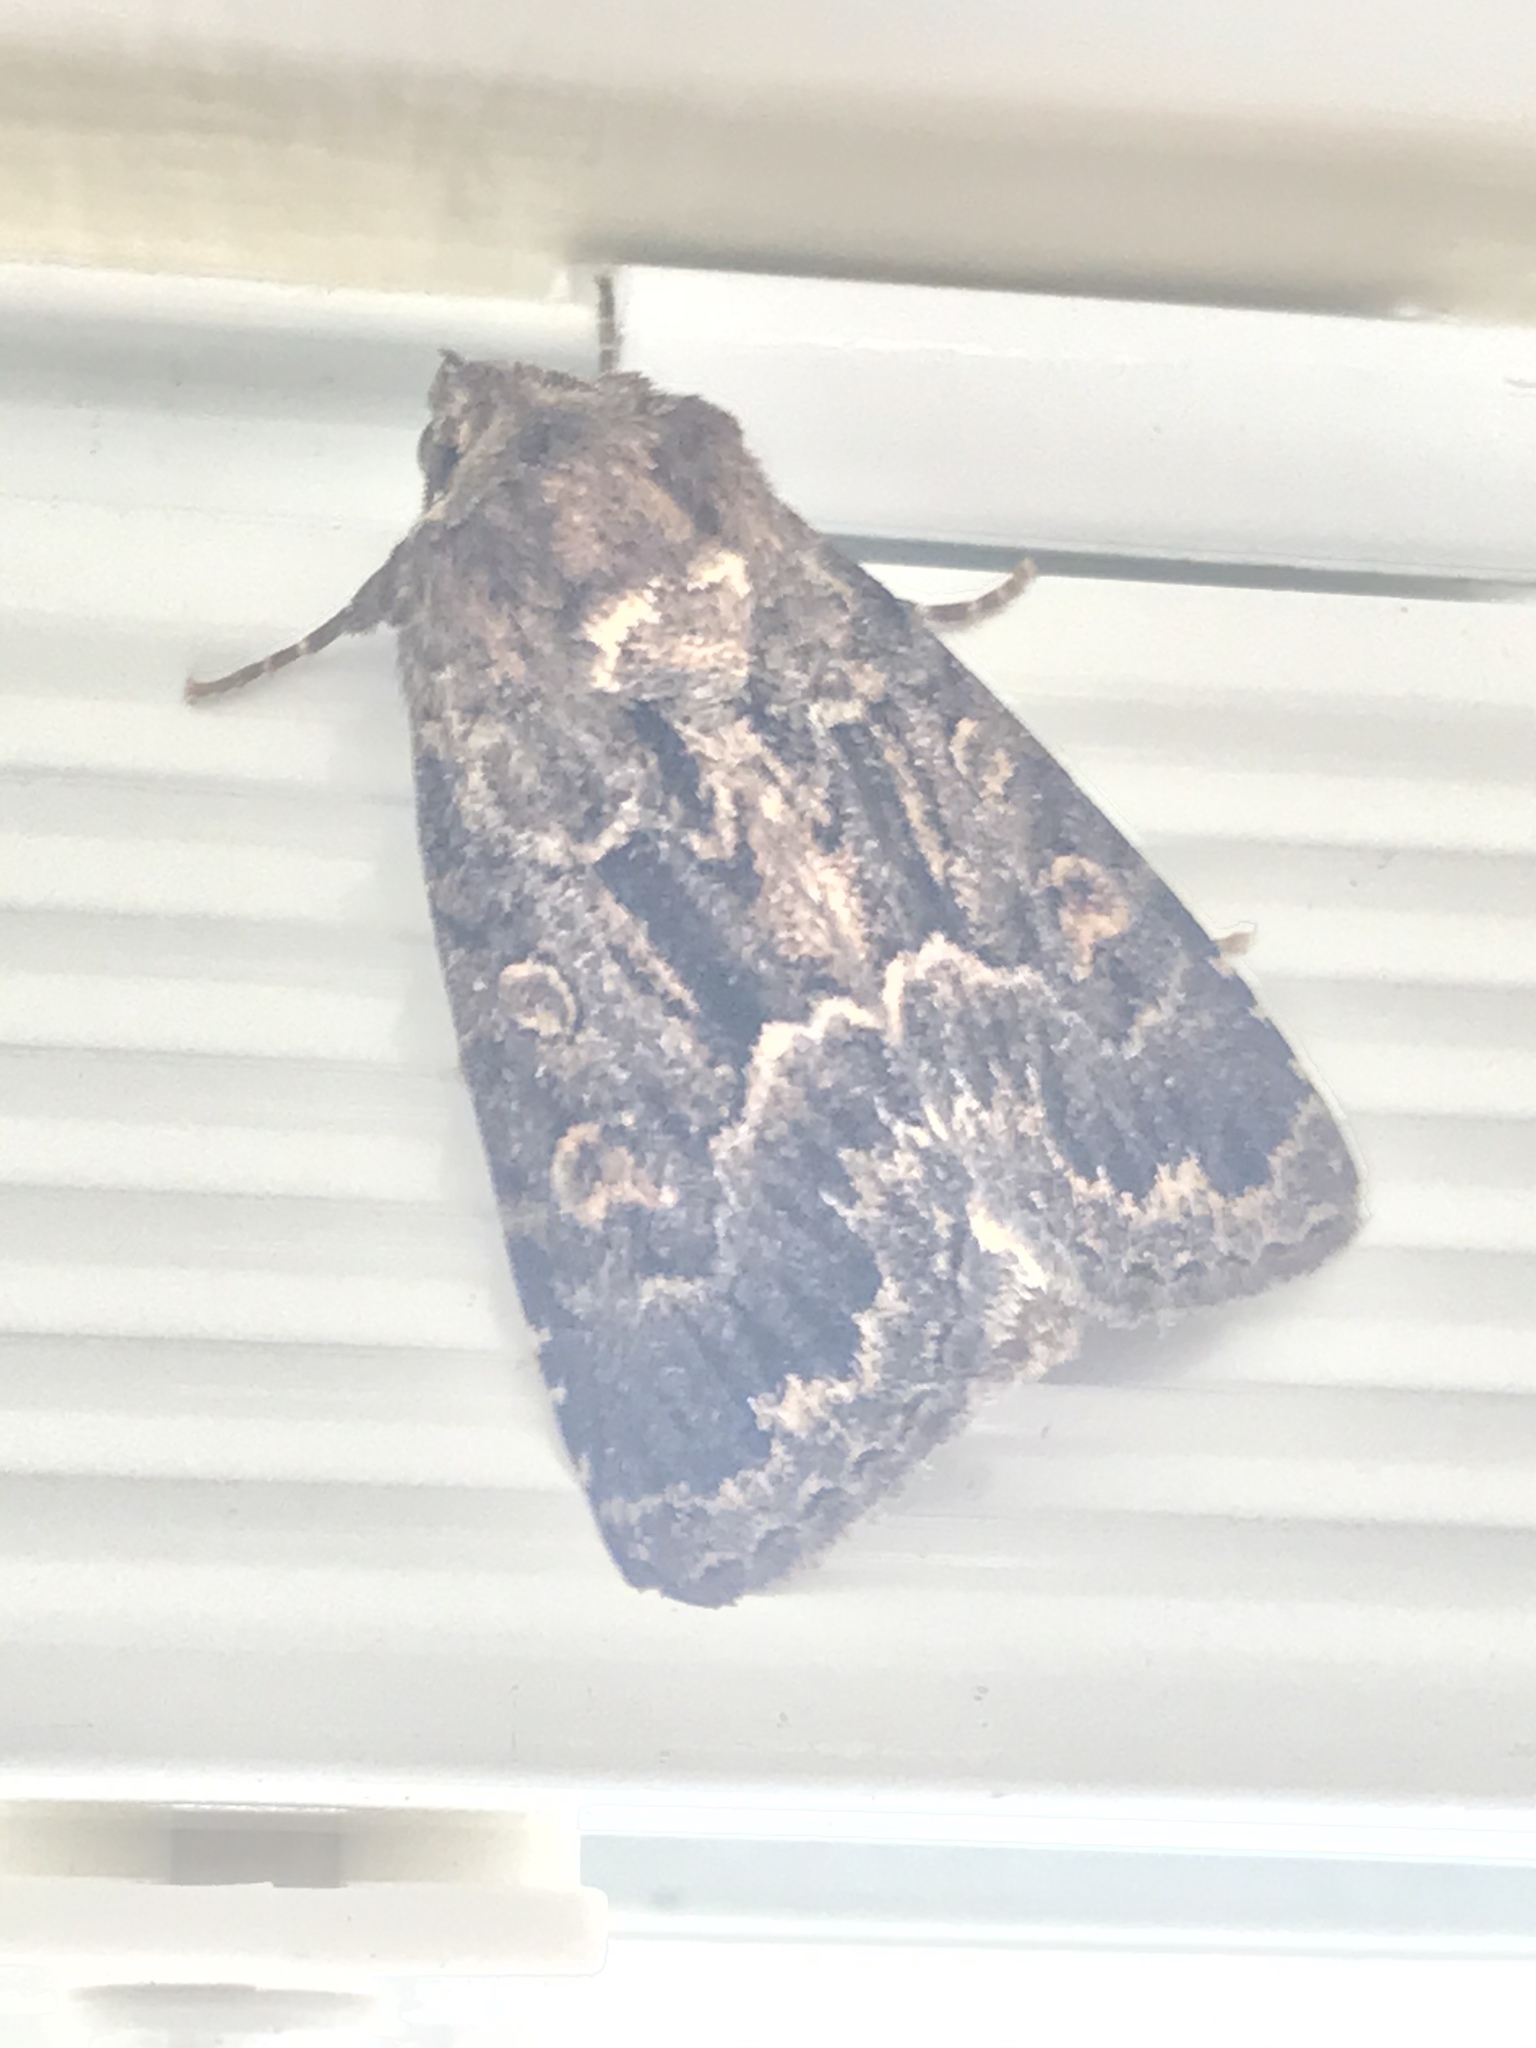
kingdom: Animalia
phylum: Arthropoda
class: Insecta
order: Lepidoptera
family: Noctuidae
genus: Thalpophila
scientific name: Thalpophila matura
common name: Straw underwing
